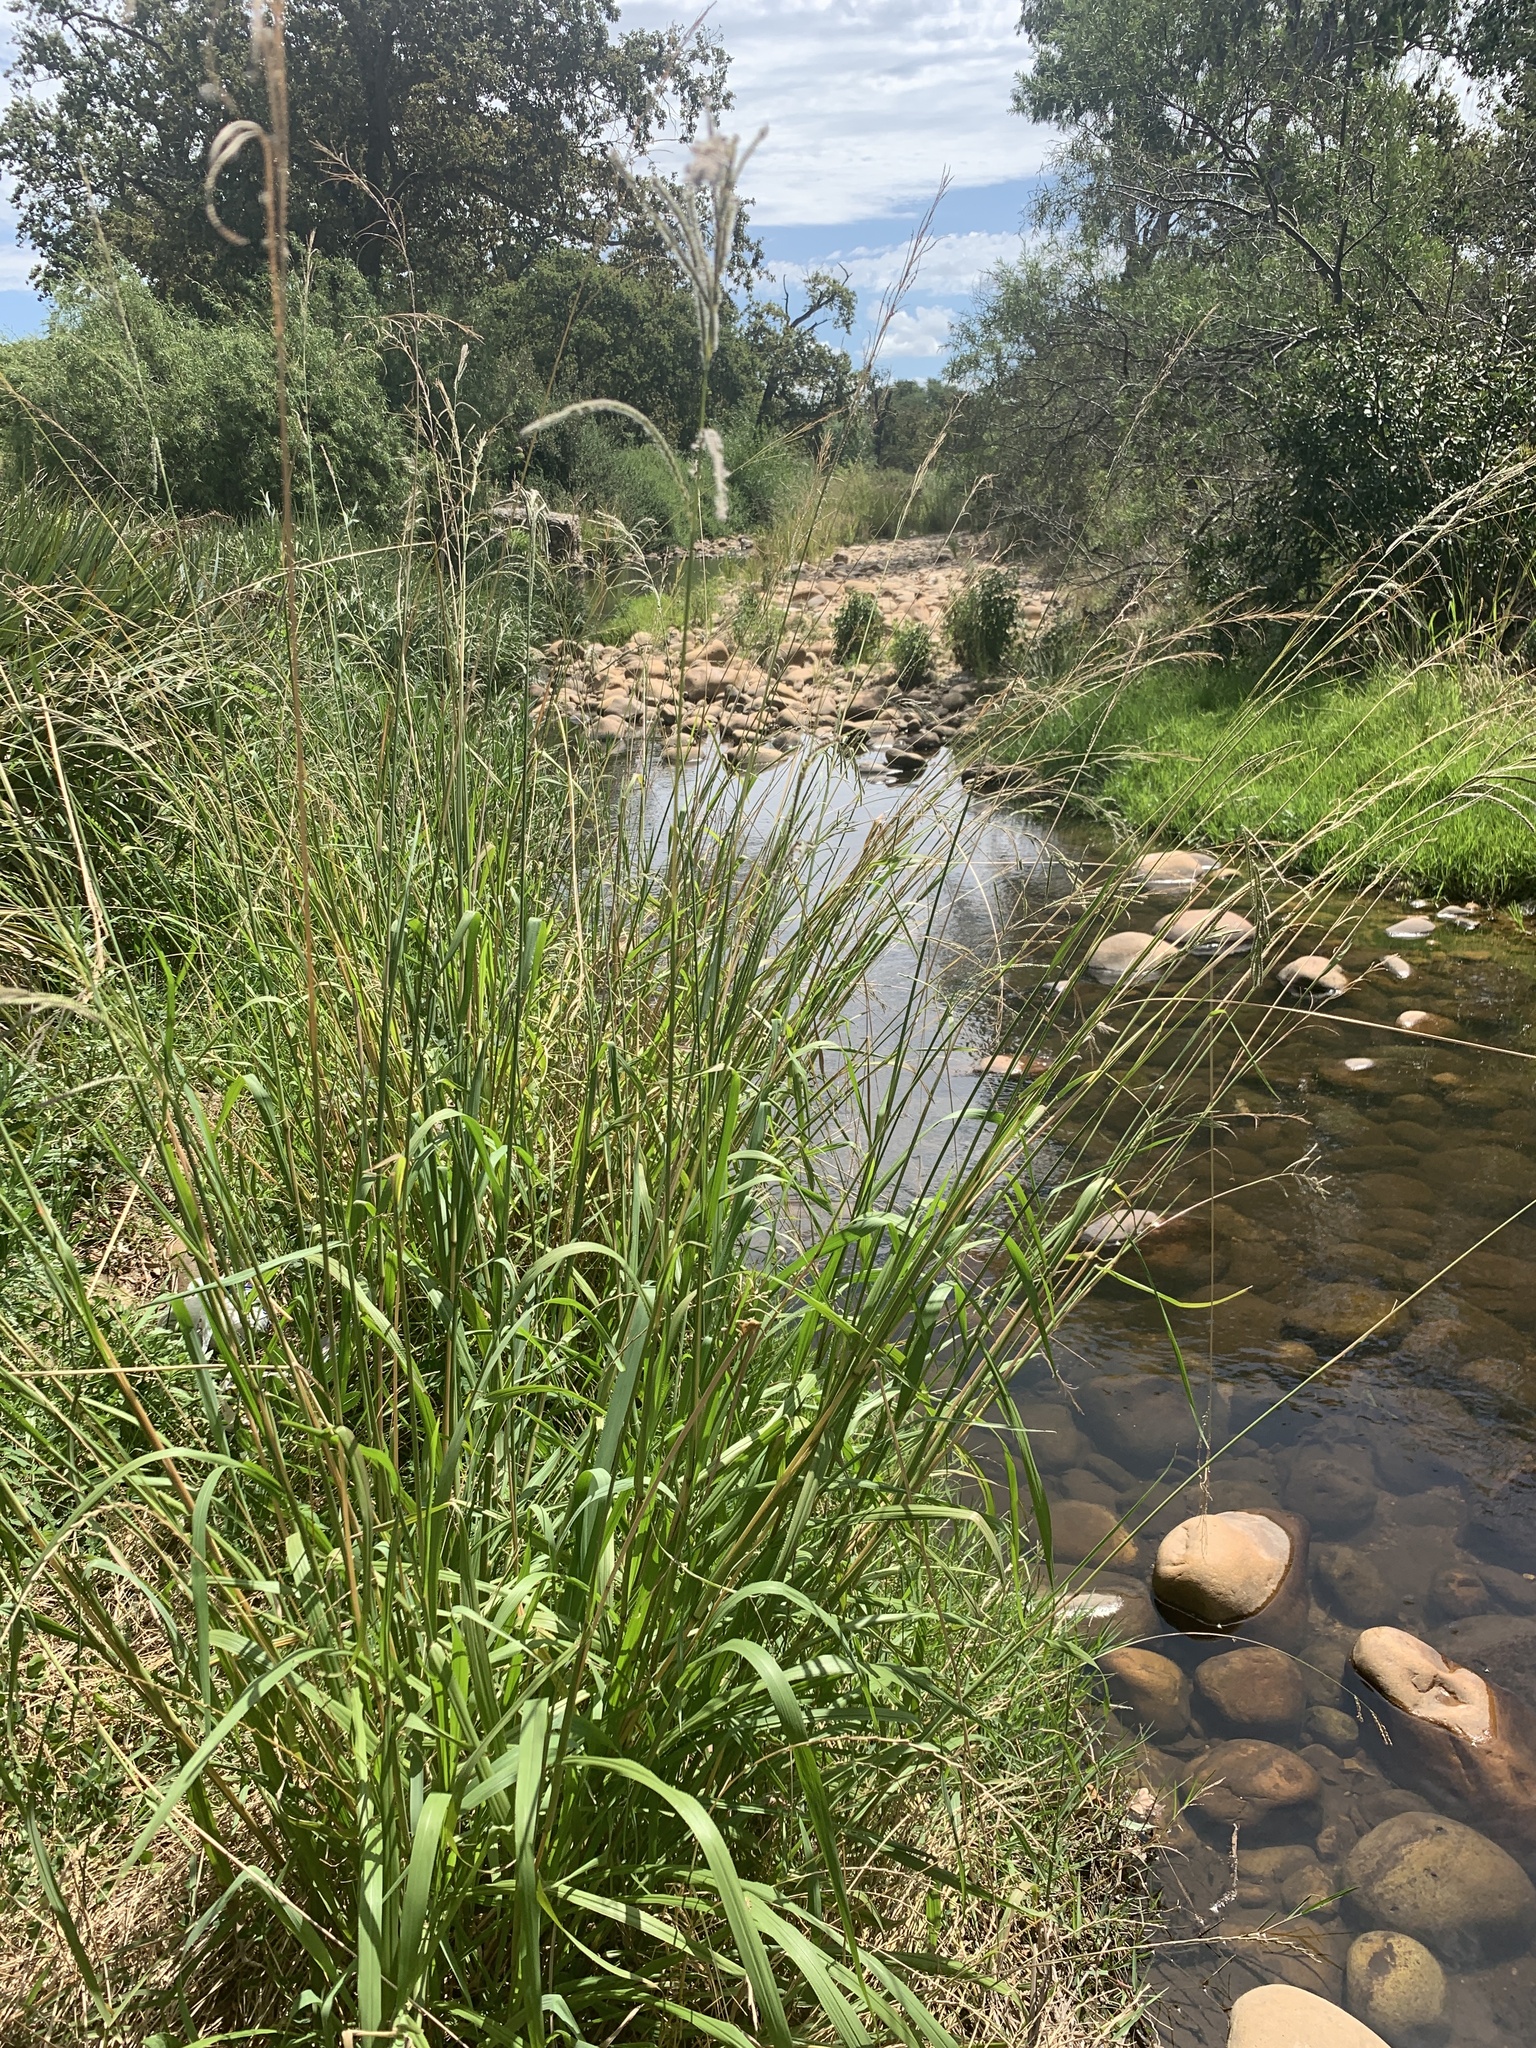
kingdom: Plantae
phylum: Tracheophyta
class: Liliopsida
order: Poales
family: Poaceae
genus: Paspalum
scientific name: Paspalum urvillei
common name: Vasey's grass
